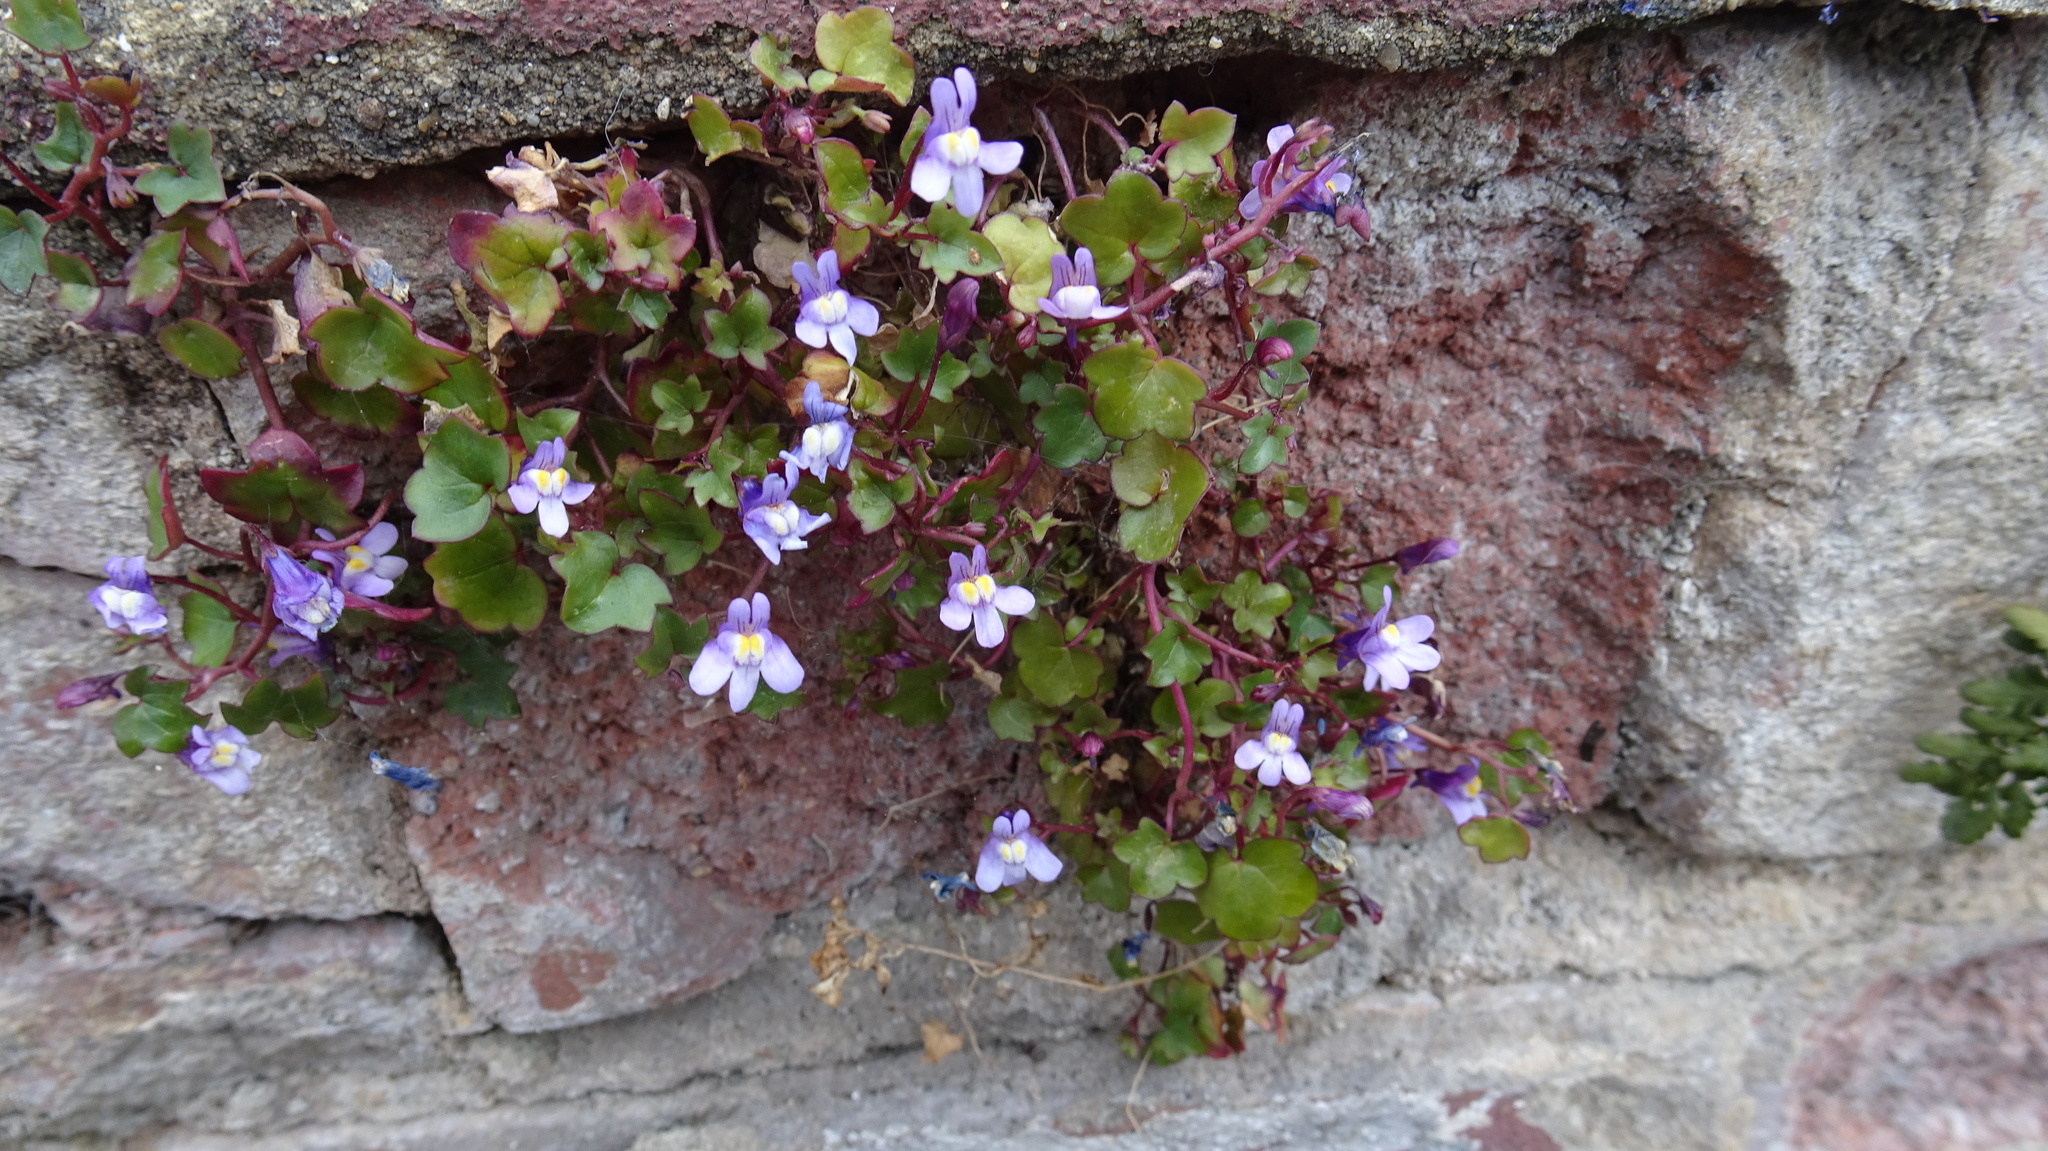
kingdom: Plantae
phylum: Tracheophyta
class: Magnoliopsida
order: Lamiales
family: Plantaginaceae
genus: Cymbalaria
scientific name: Cymbalaria muralis
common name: Ivy-leaved toadflax
